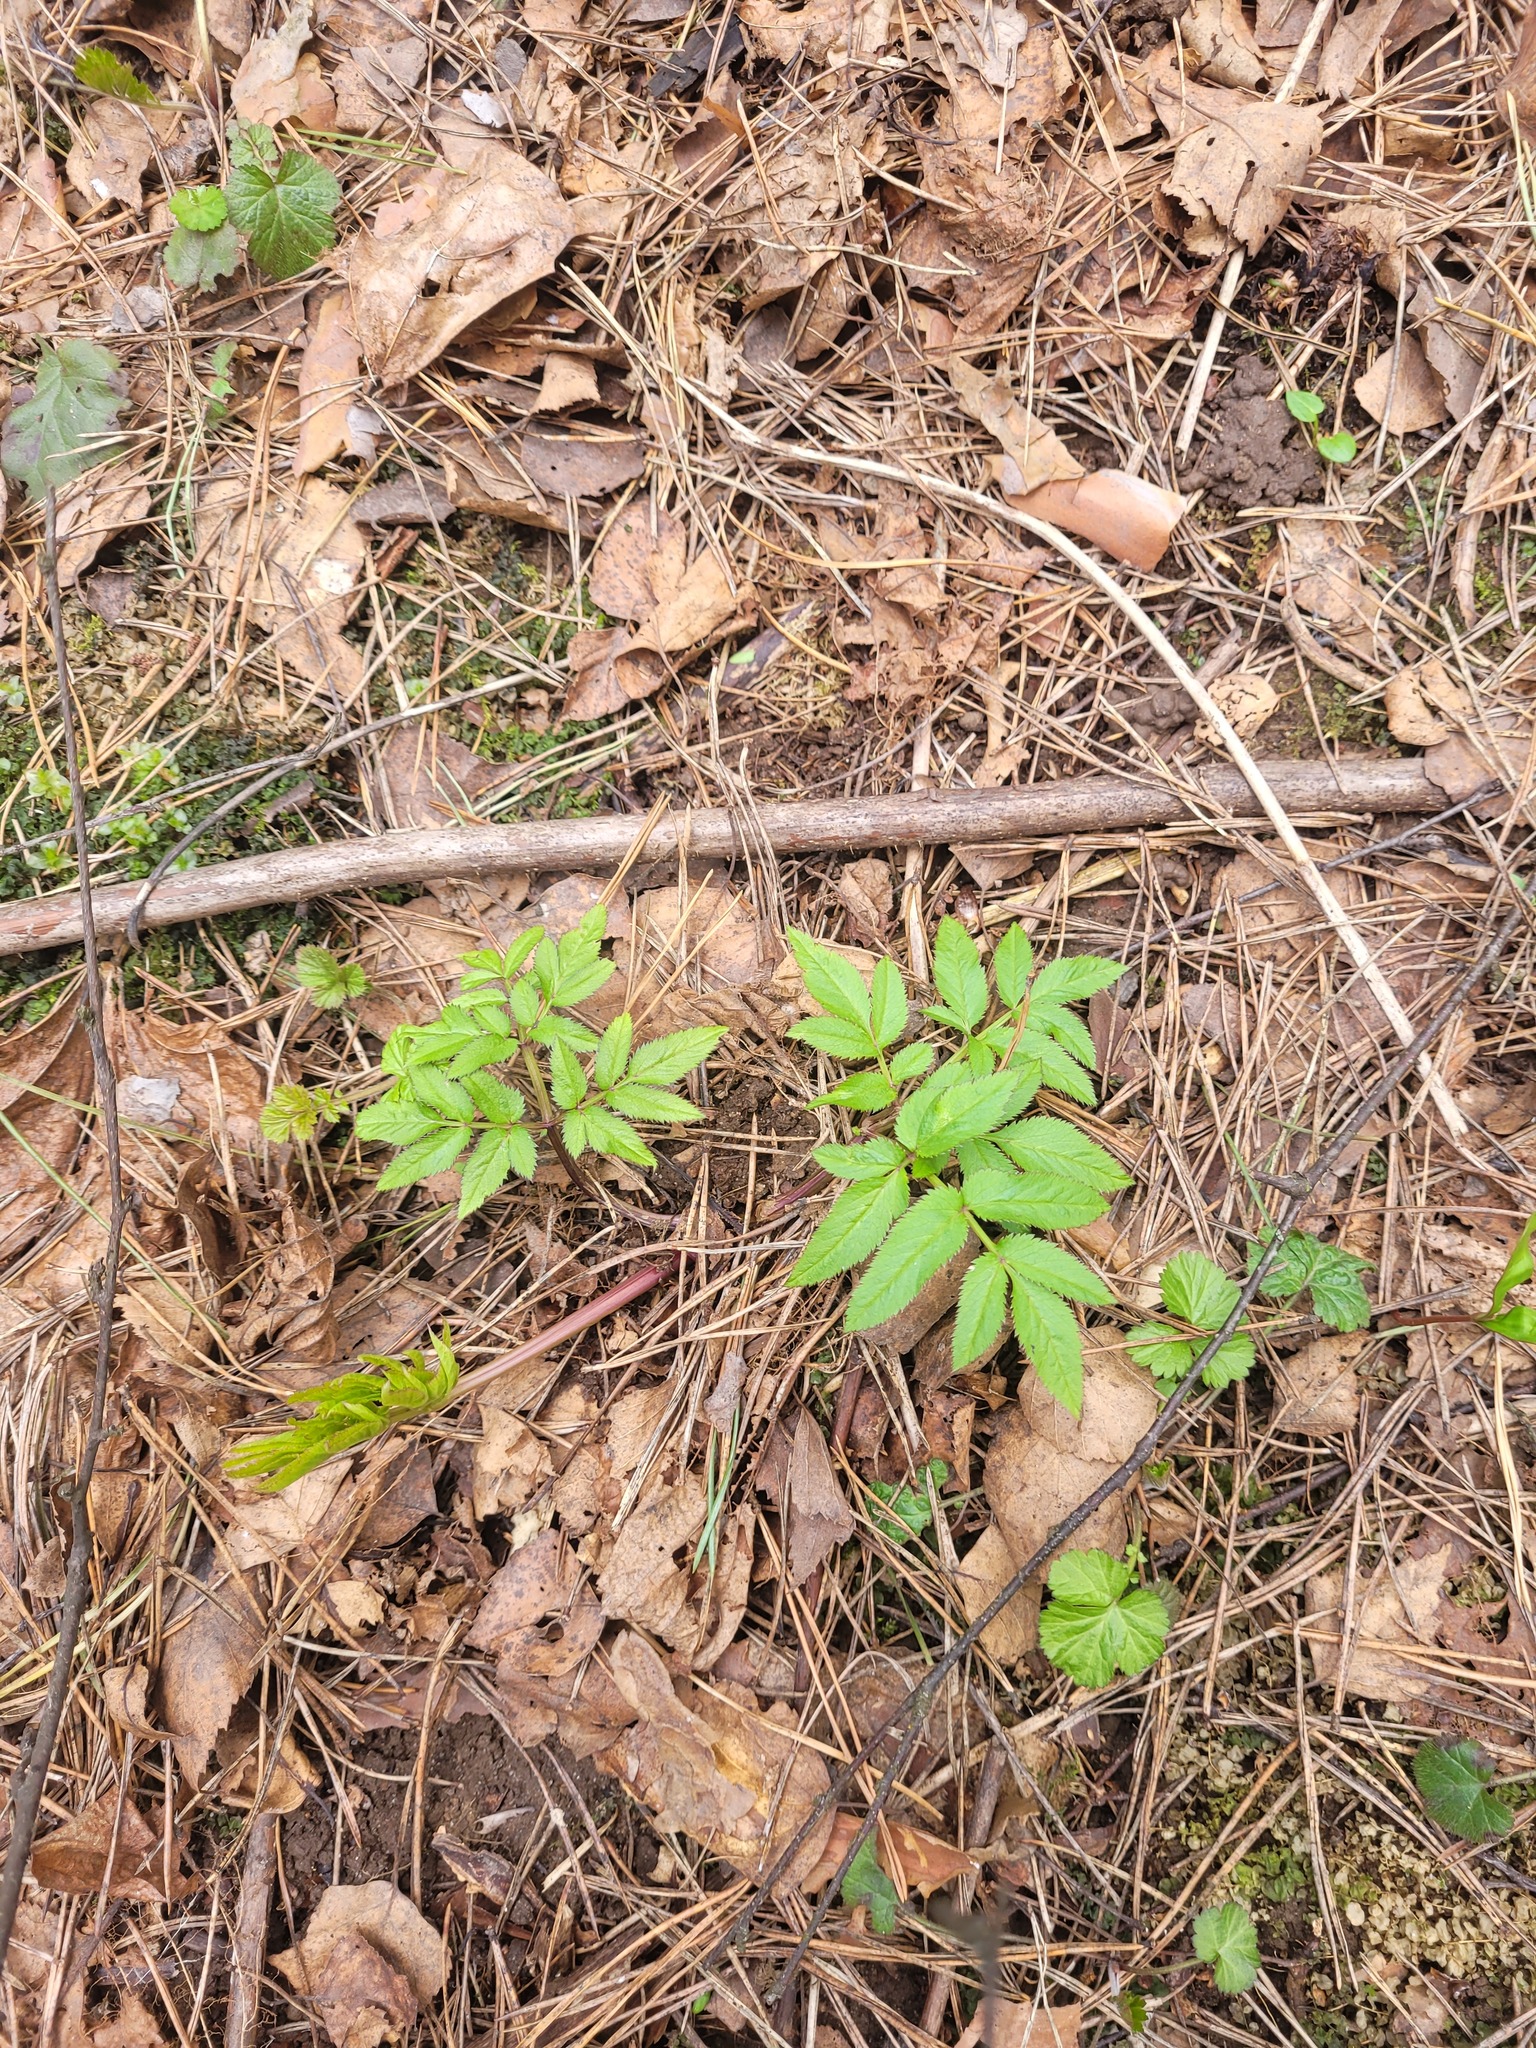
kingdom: Plantae
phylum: Tracheophyta
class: Magnoliopsida
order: Apiales
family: Apiaceae
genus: Angelica
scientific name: Angelica sylvestris
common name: Wild angelica
